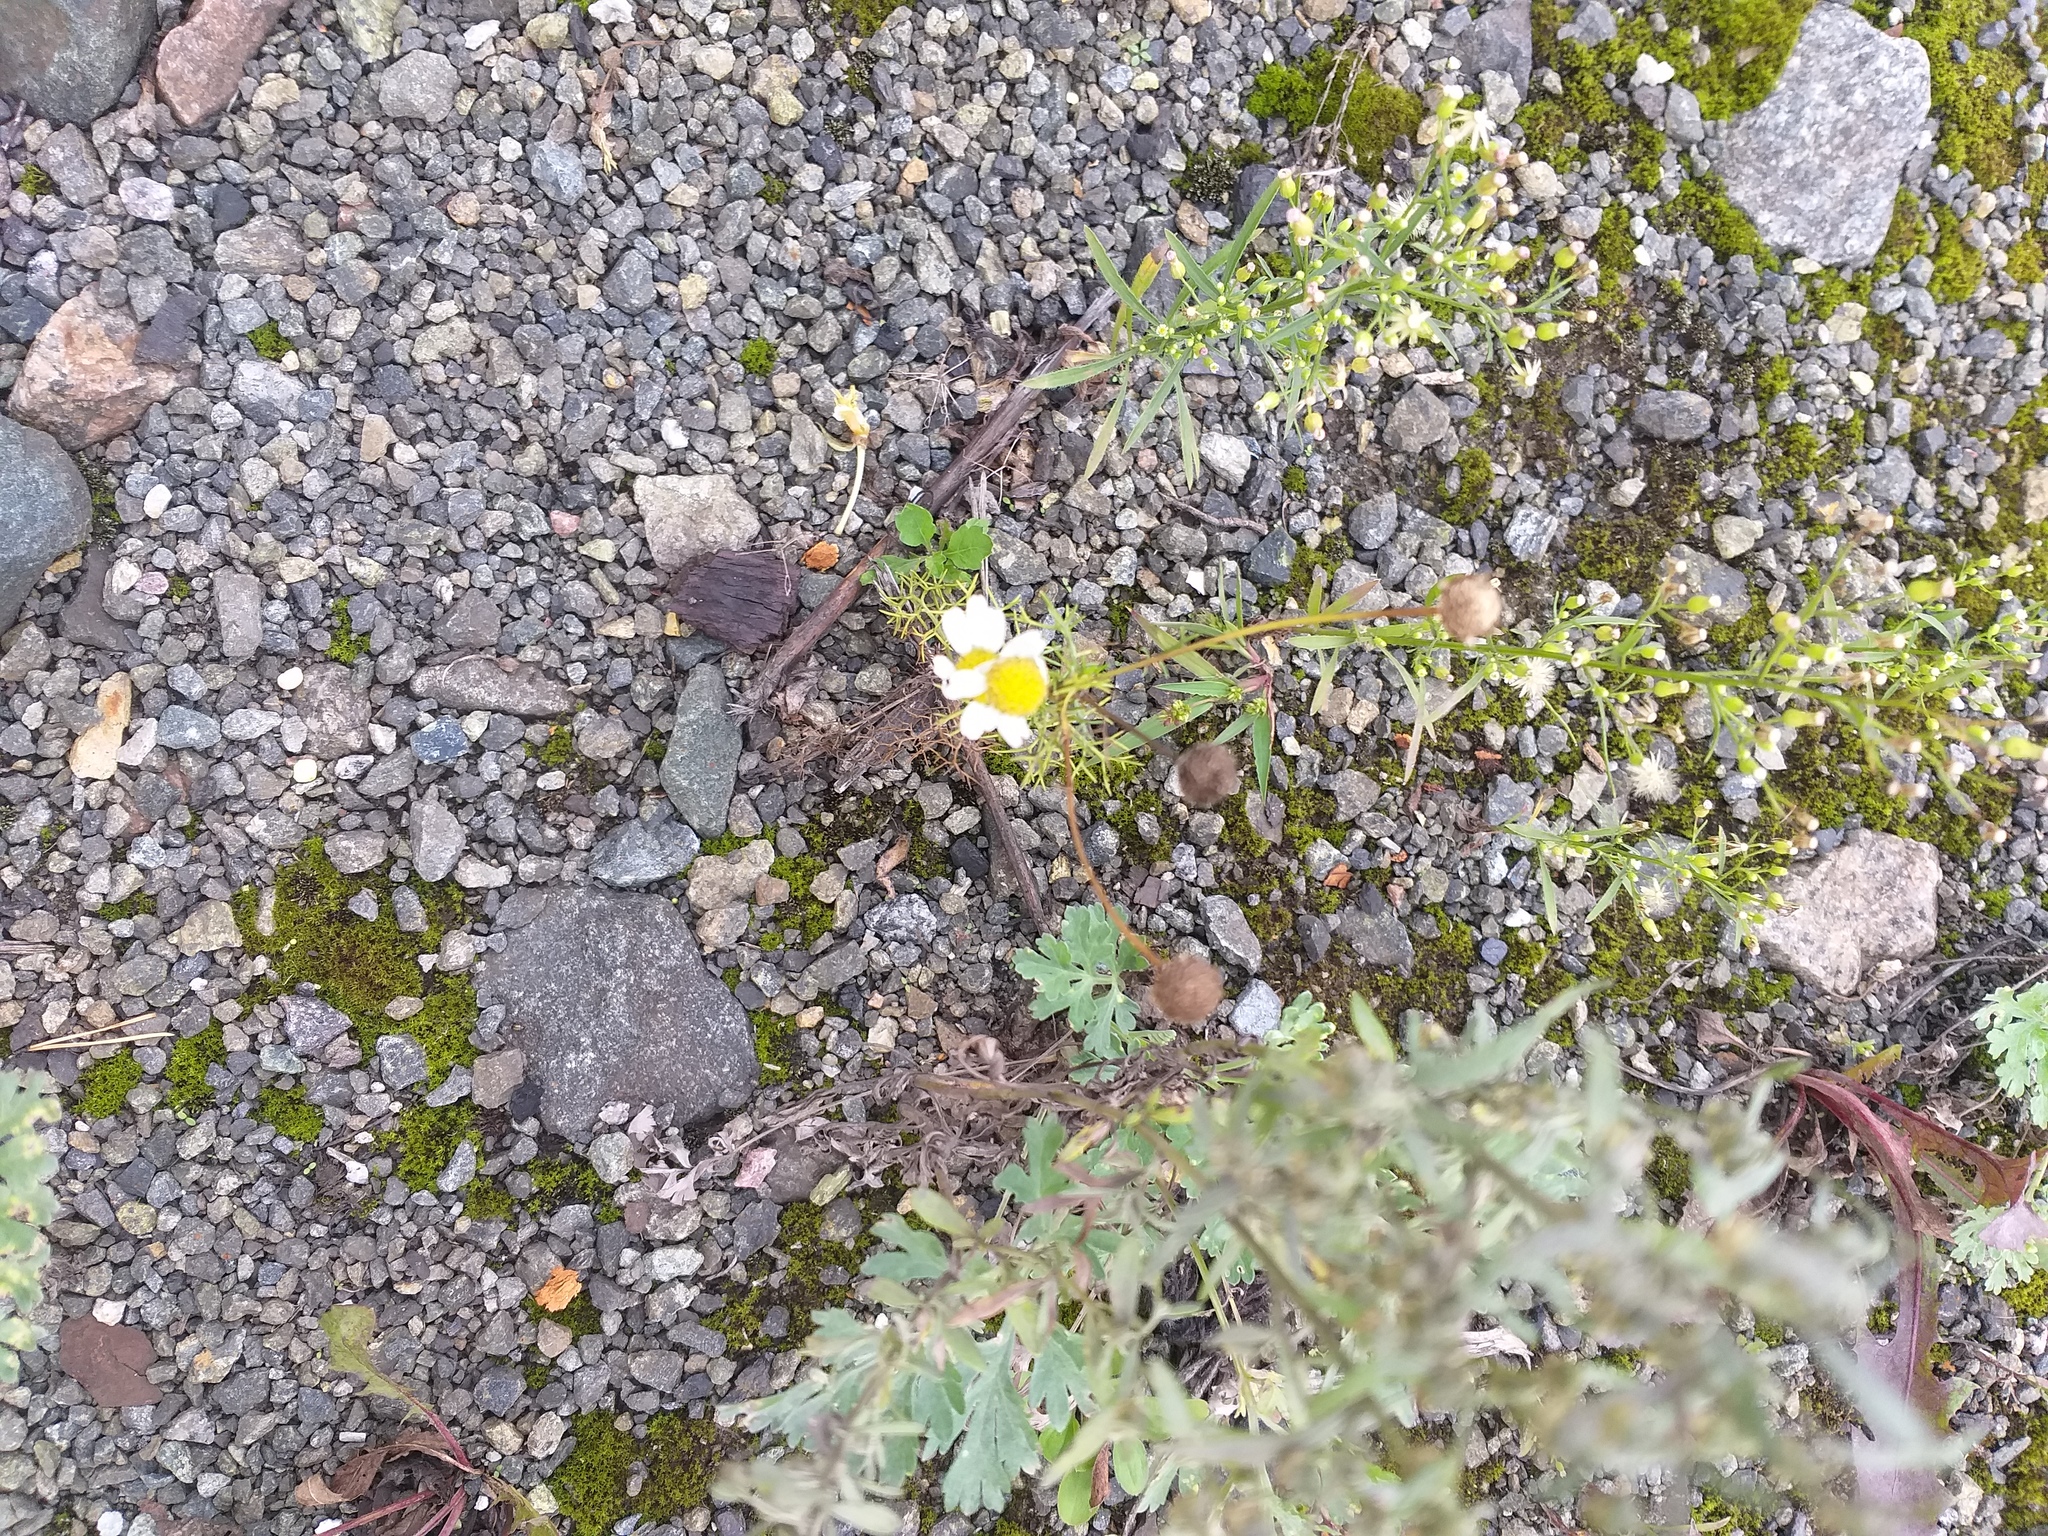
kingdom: Plantae
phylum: Tracheophyta
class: Magnoliopsida
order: Asterales
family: Asteraceae
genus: Tripleurospermum
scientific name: Tripleurospermum inodorum
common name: Scentless mayweed
